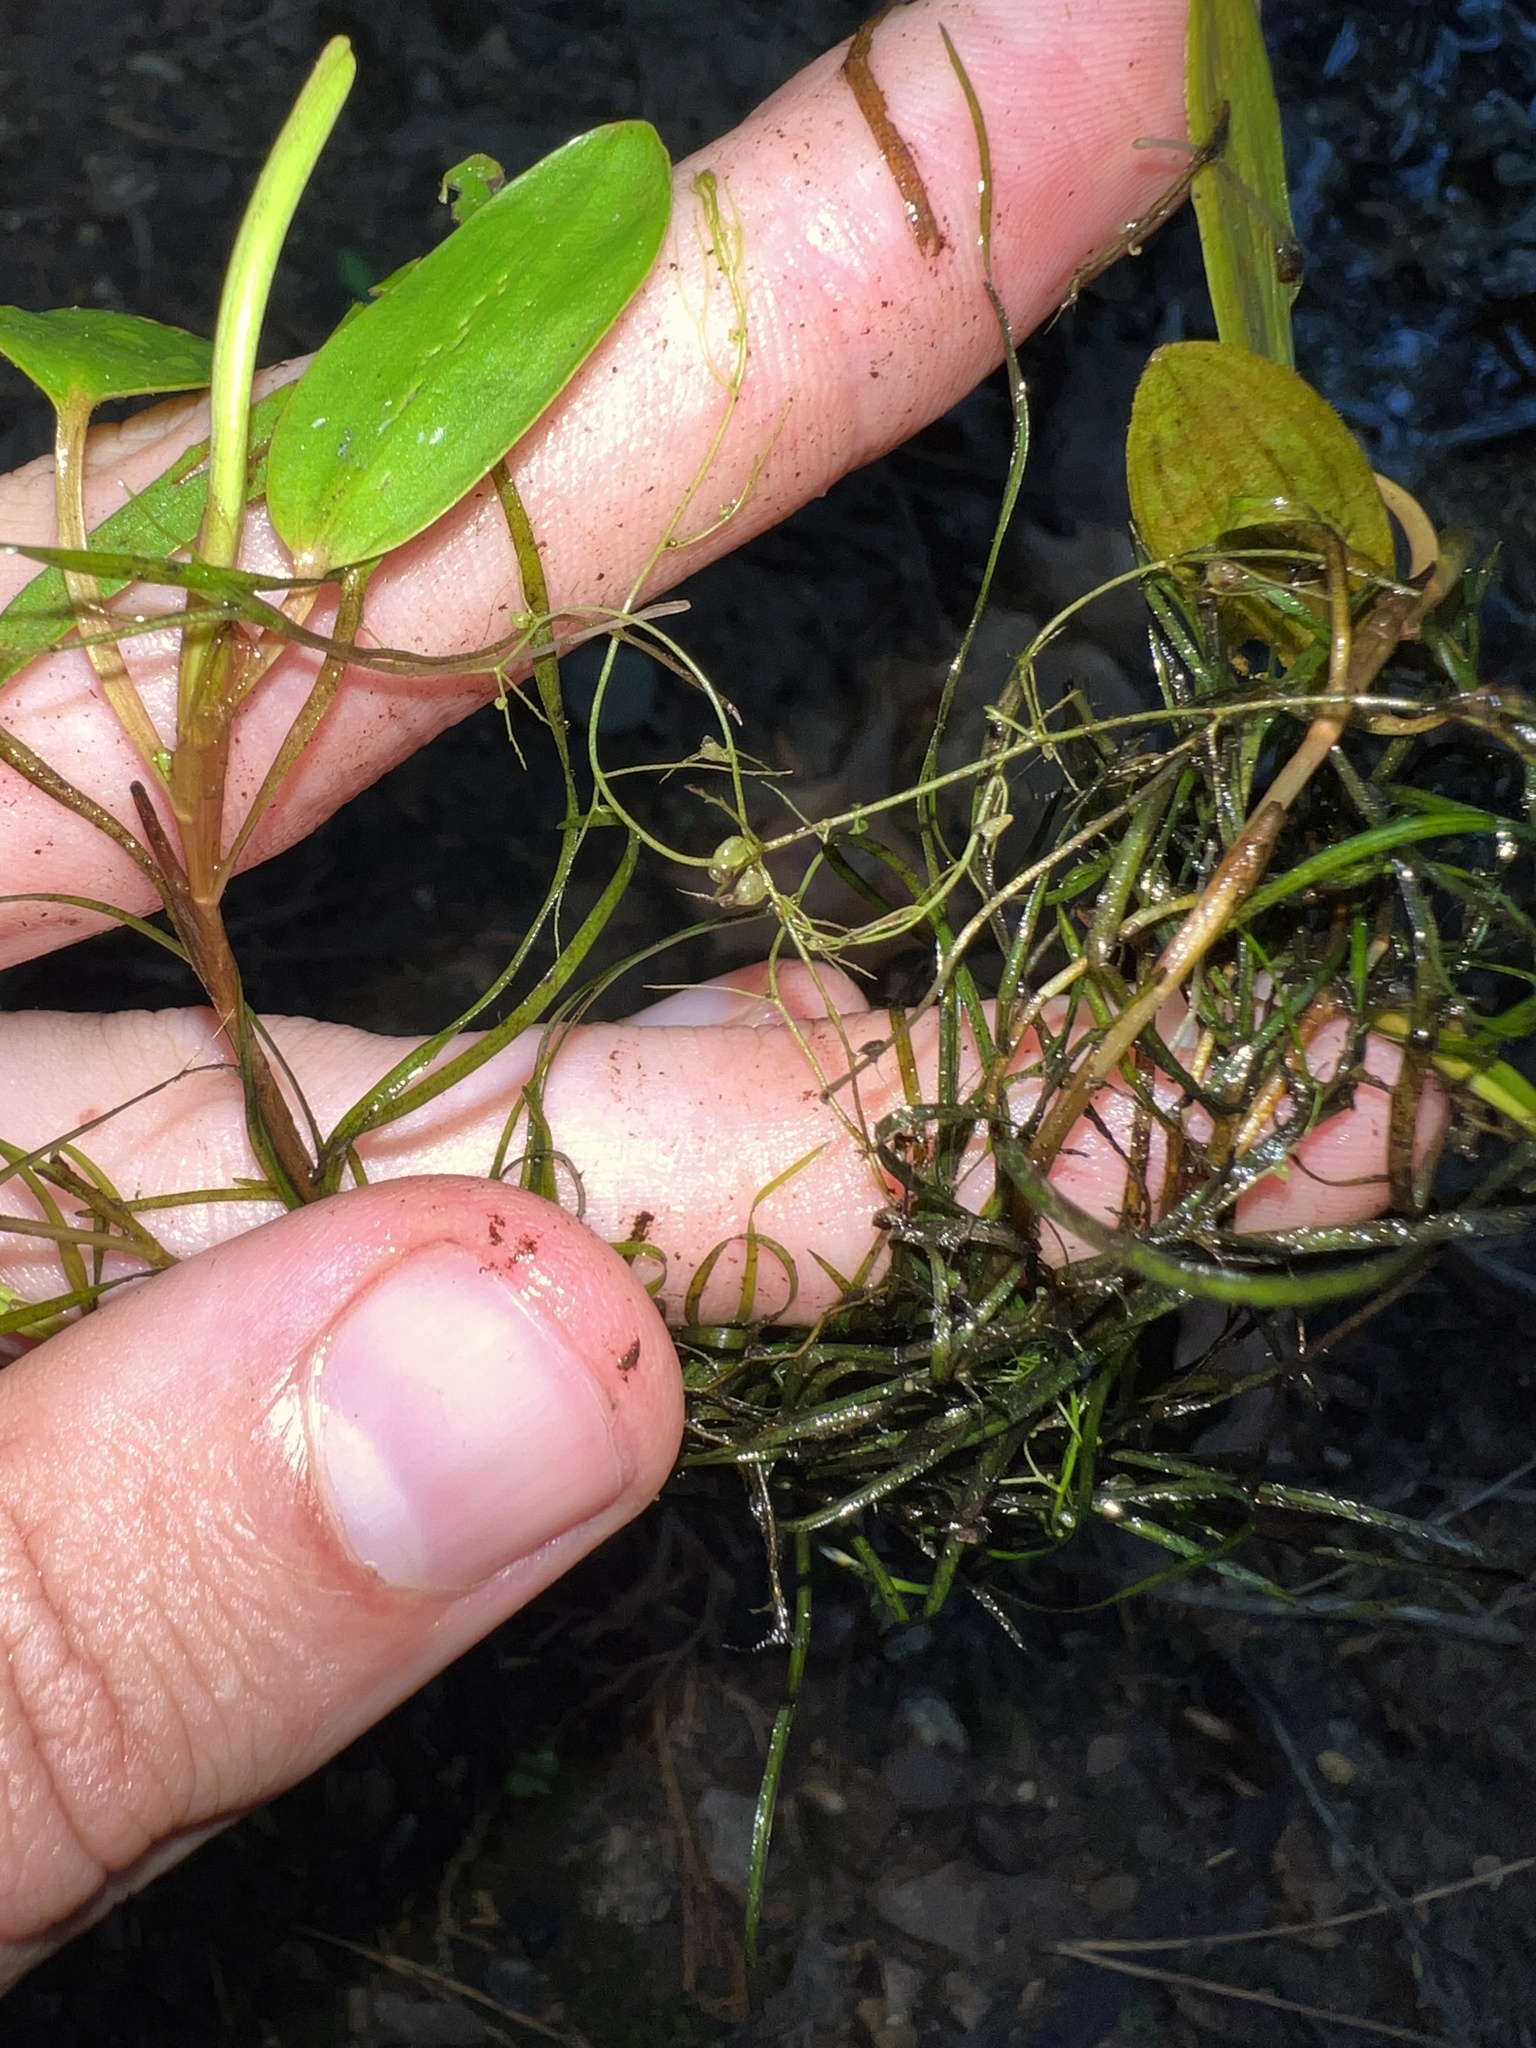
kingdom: Plantae
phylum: Tracheophyta
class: Magnoliopsida
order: Lamiales
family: Lentibulariaceae
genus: Utricularia
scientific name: Utricularia gibba
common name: Humped bladderwort
